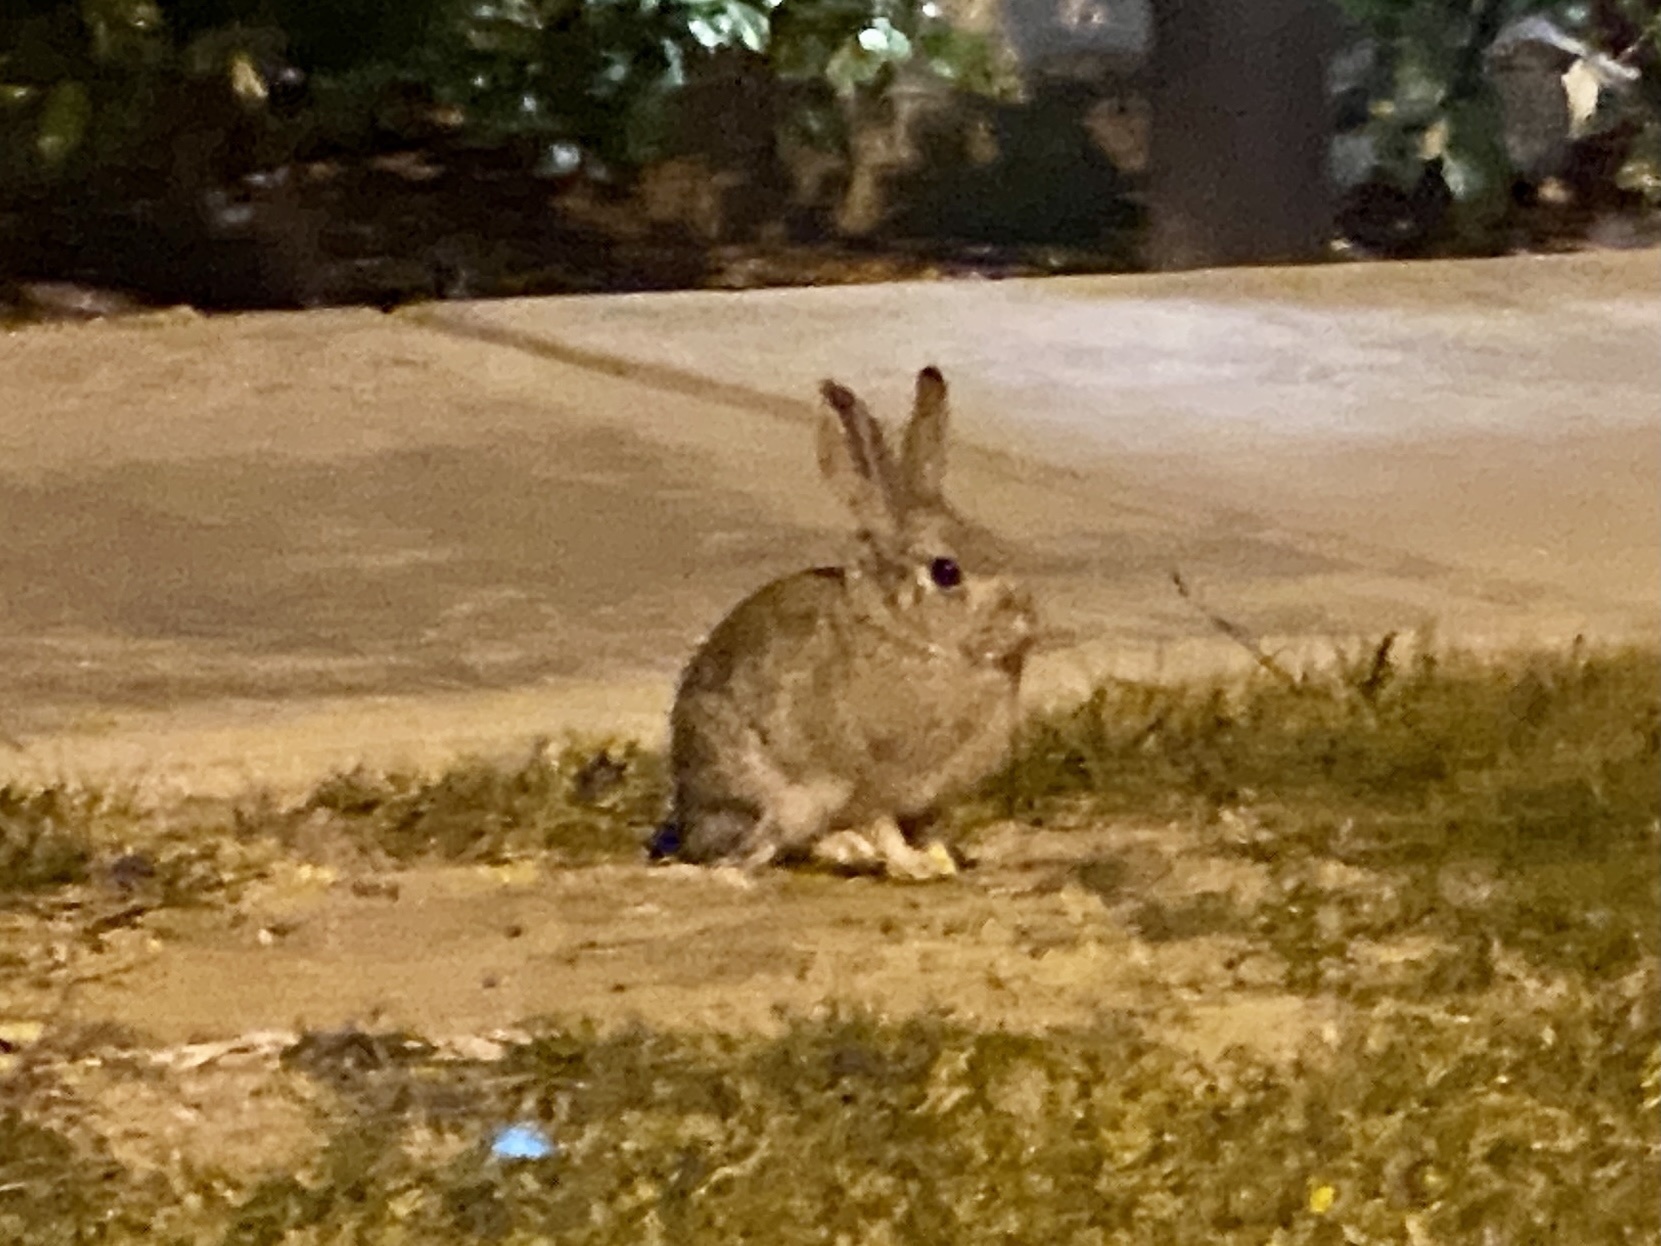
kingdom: Animalia
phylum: Chordata
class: Mammalia
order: Lagomorpha
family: Leporidae
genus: Sylvilagus
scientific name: Sylvilagus audubonii
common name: Desert cottontail
